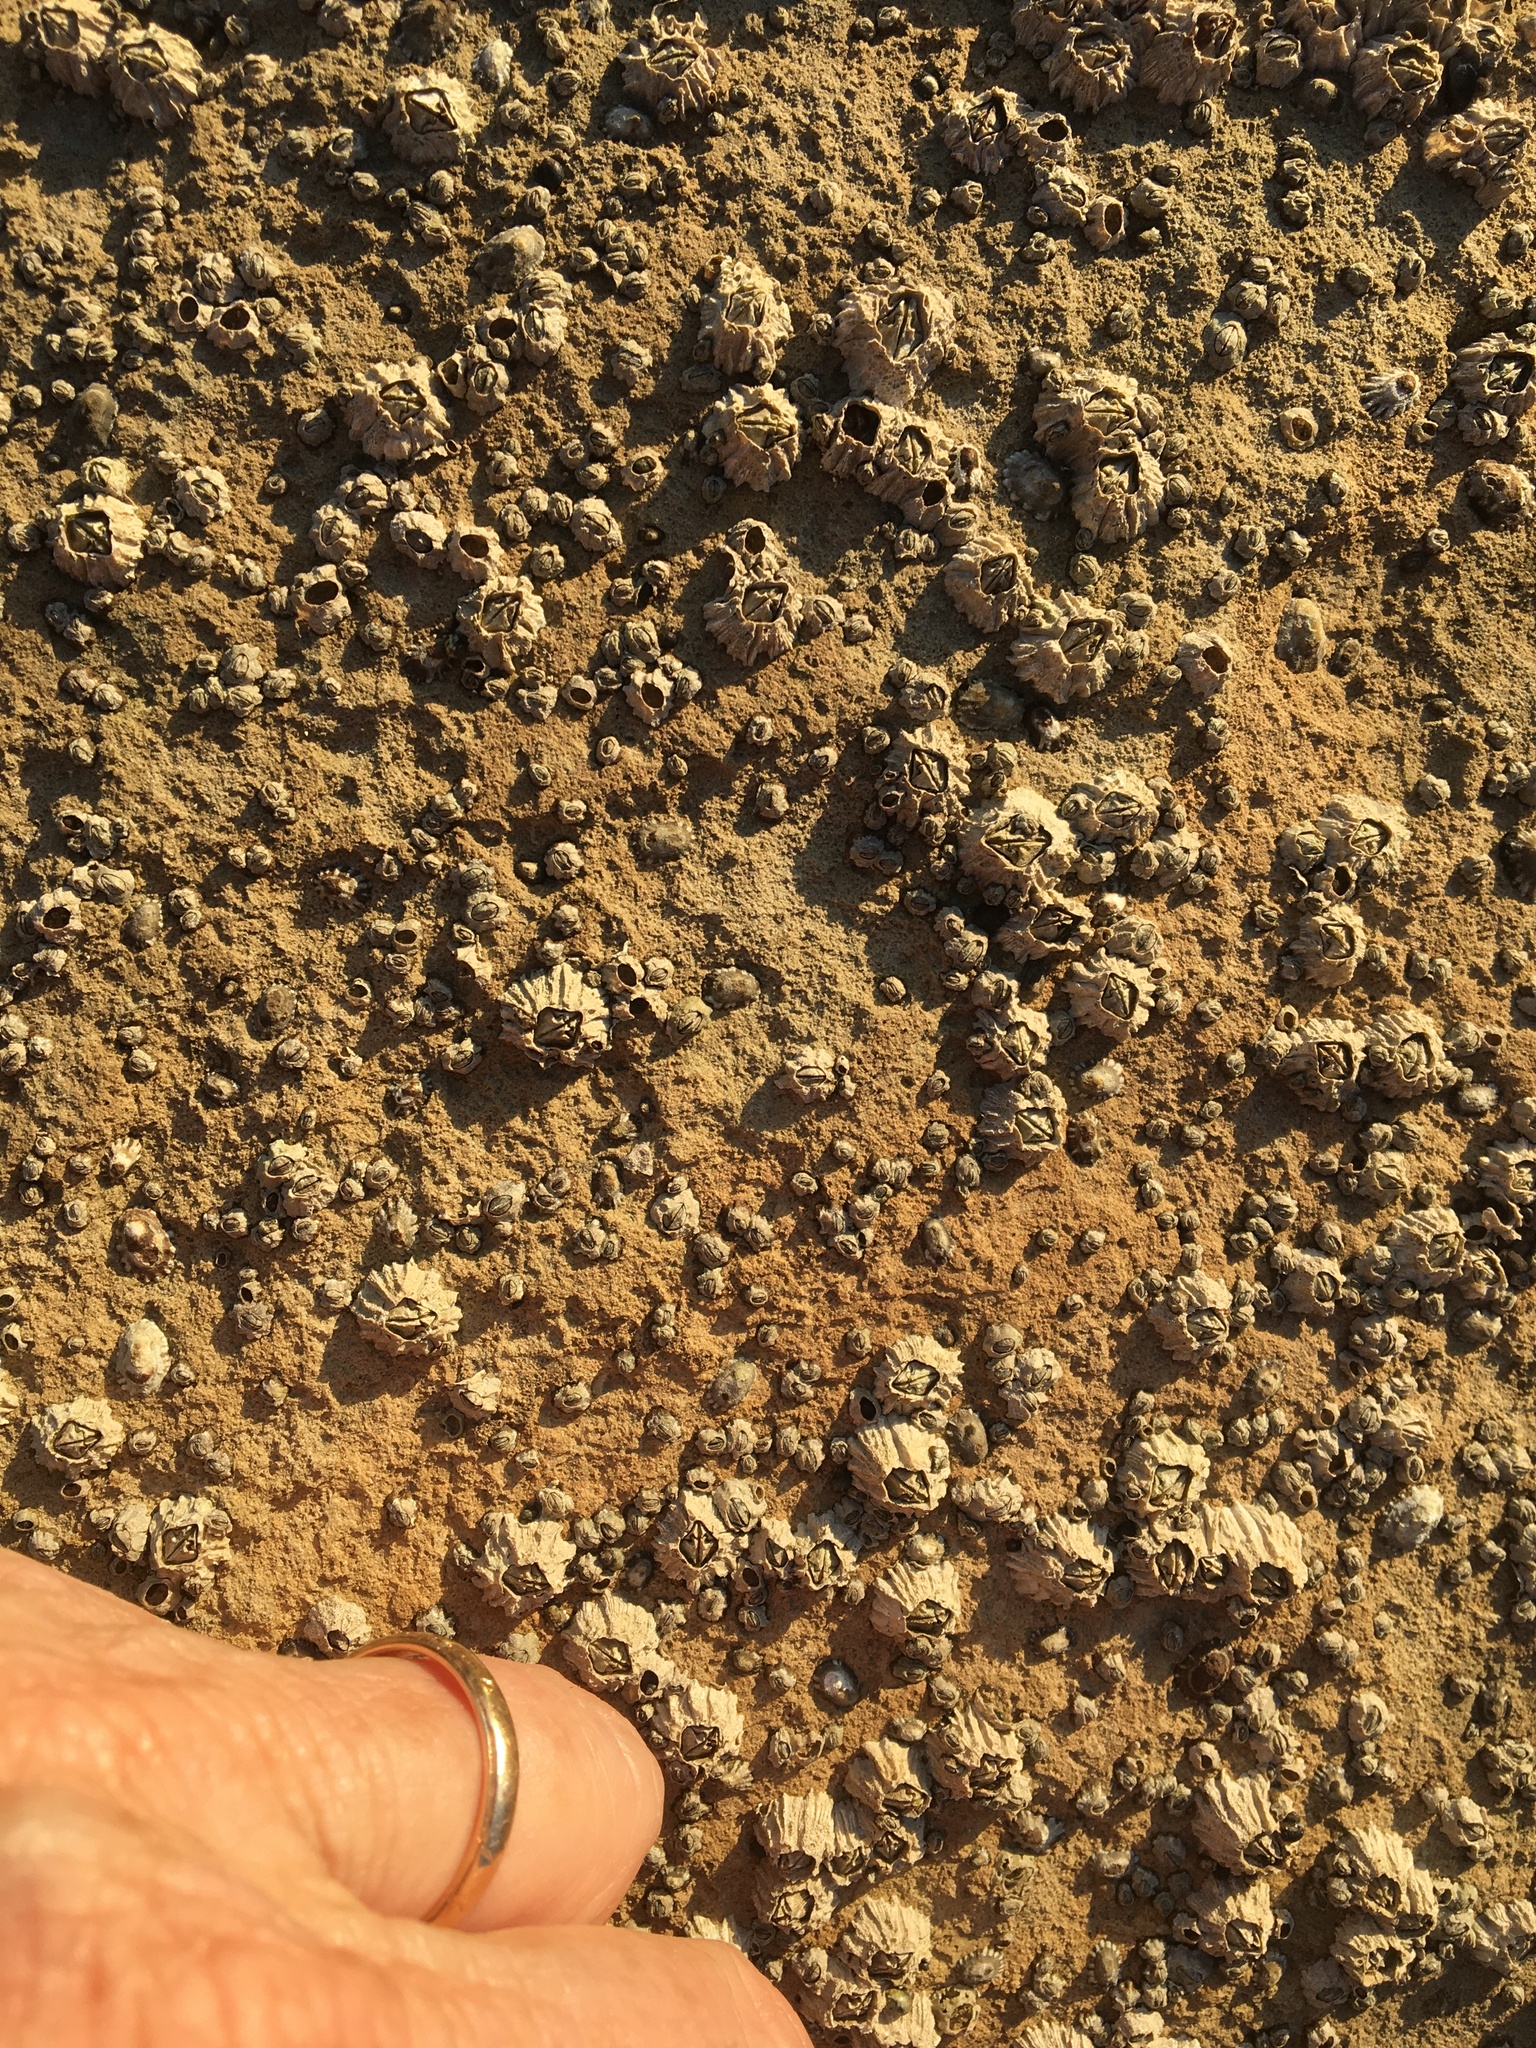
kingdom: Animalia
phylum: Arthropoda
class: Maxillopoda
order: Sessilia
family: Balanidae
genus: Balanus
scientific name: Balanus glandula
